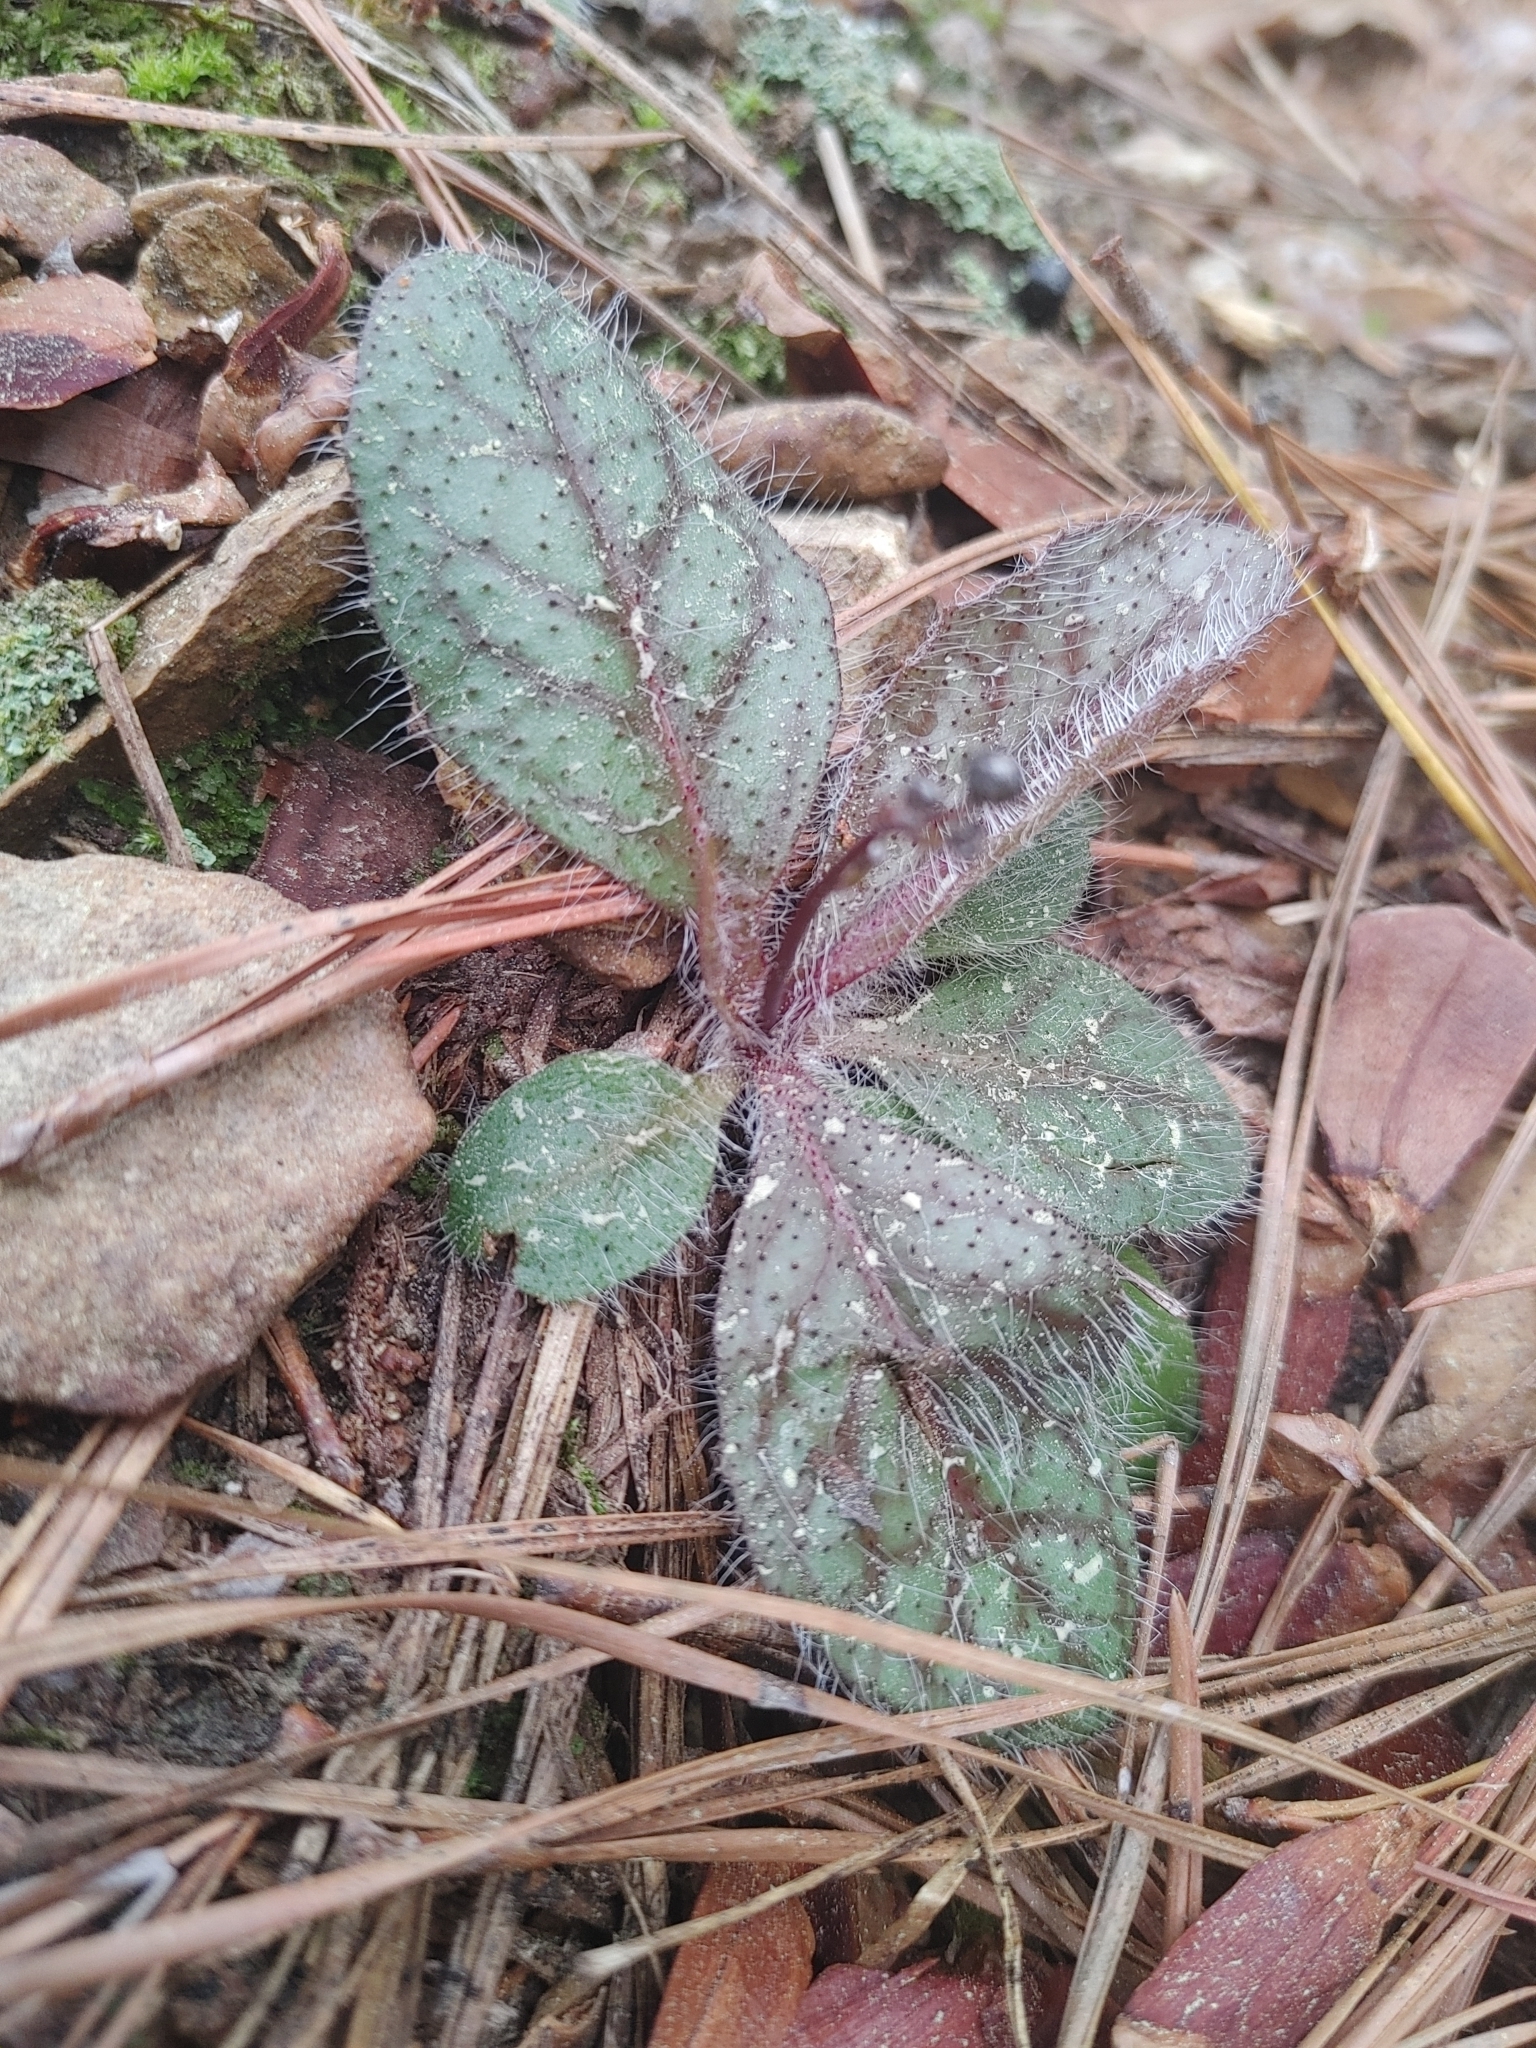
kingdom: Plantae
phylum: Tracheophyta
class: Magnoliopsida
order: Asterales
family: Asteraceae
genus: Hieracium
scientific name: Hieracium venosum
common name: Rattlesnake hawkweed
